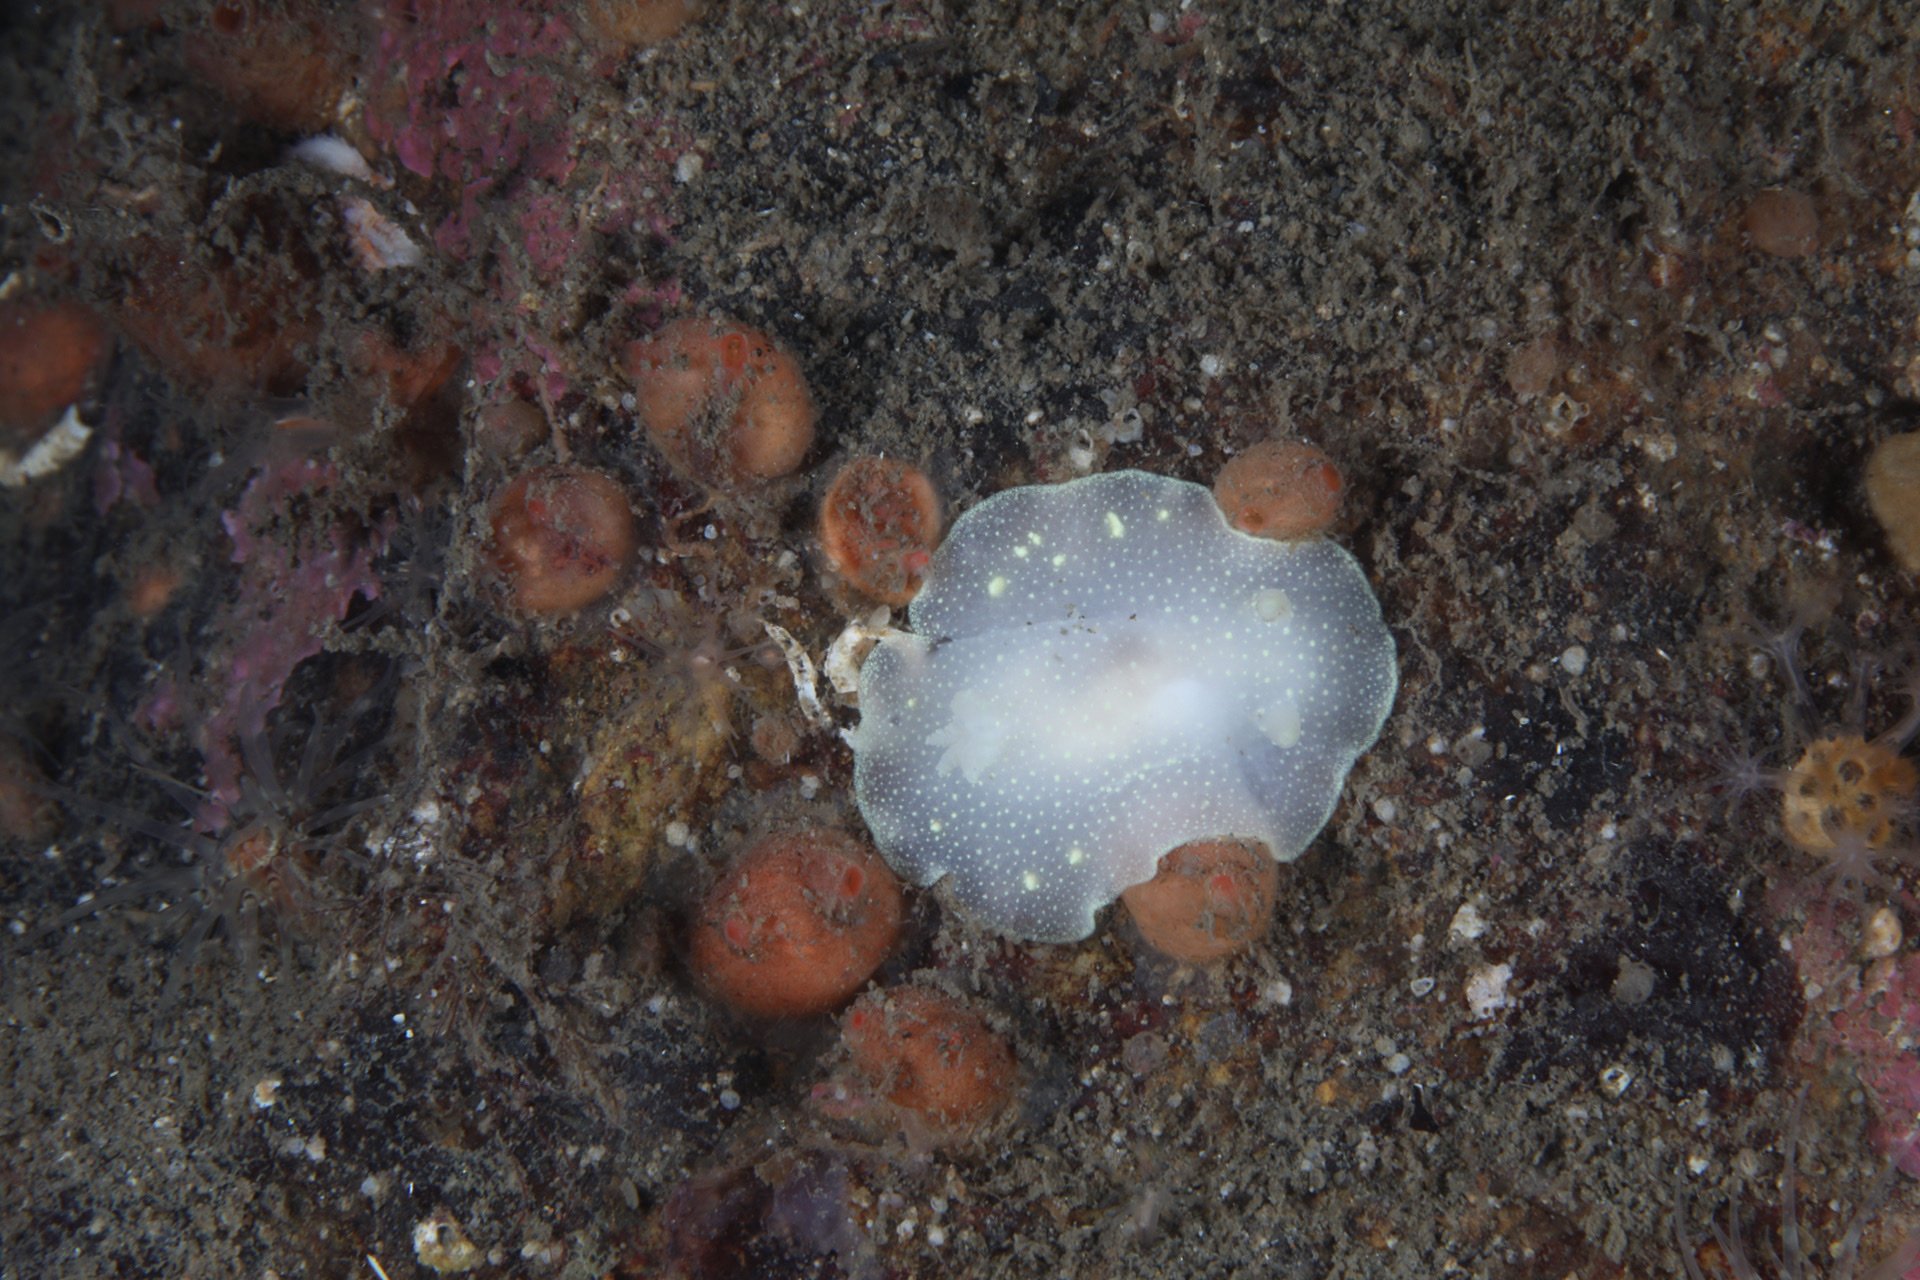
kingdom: Animalia
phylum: Mollusca
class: Gastropoda
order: Nudibranchia
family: Cadlinidae
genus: Cadlina
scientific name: Cadlina laevis
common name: White atlantic cadlina
